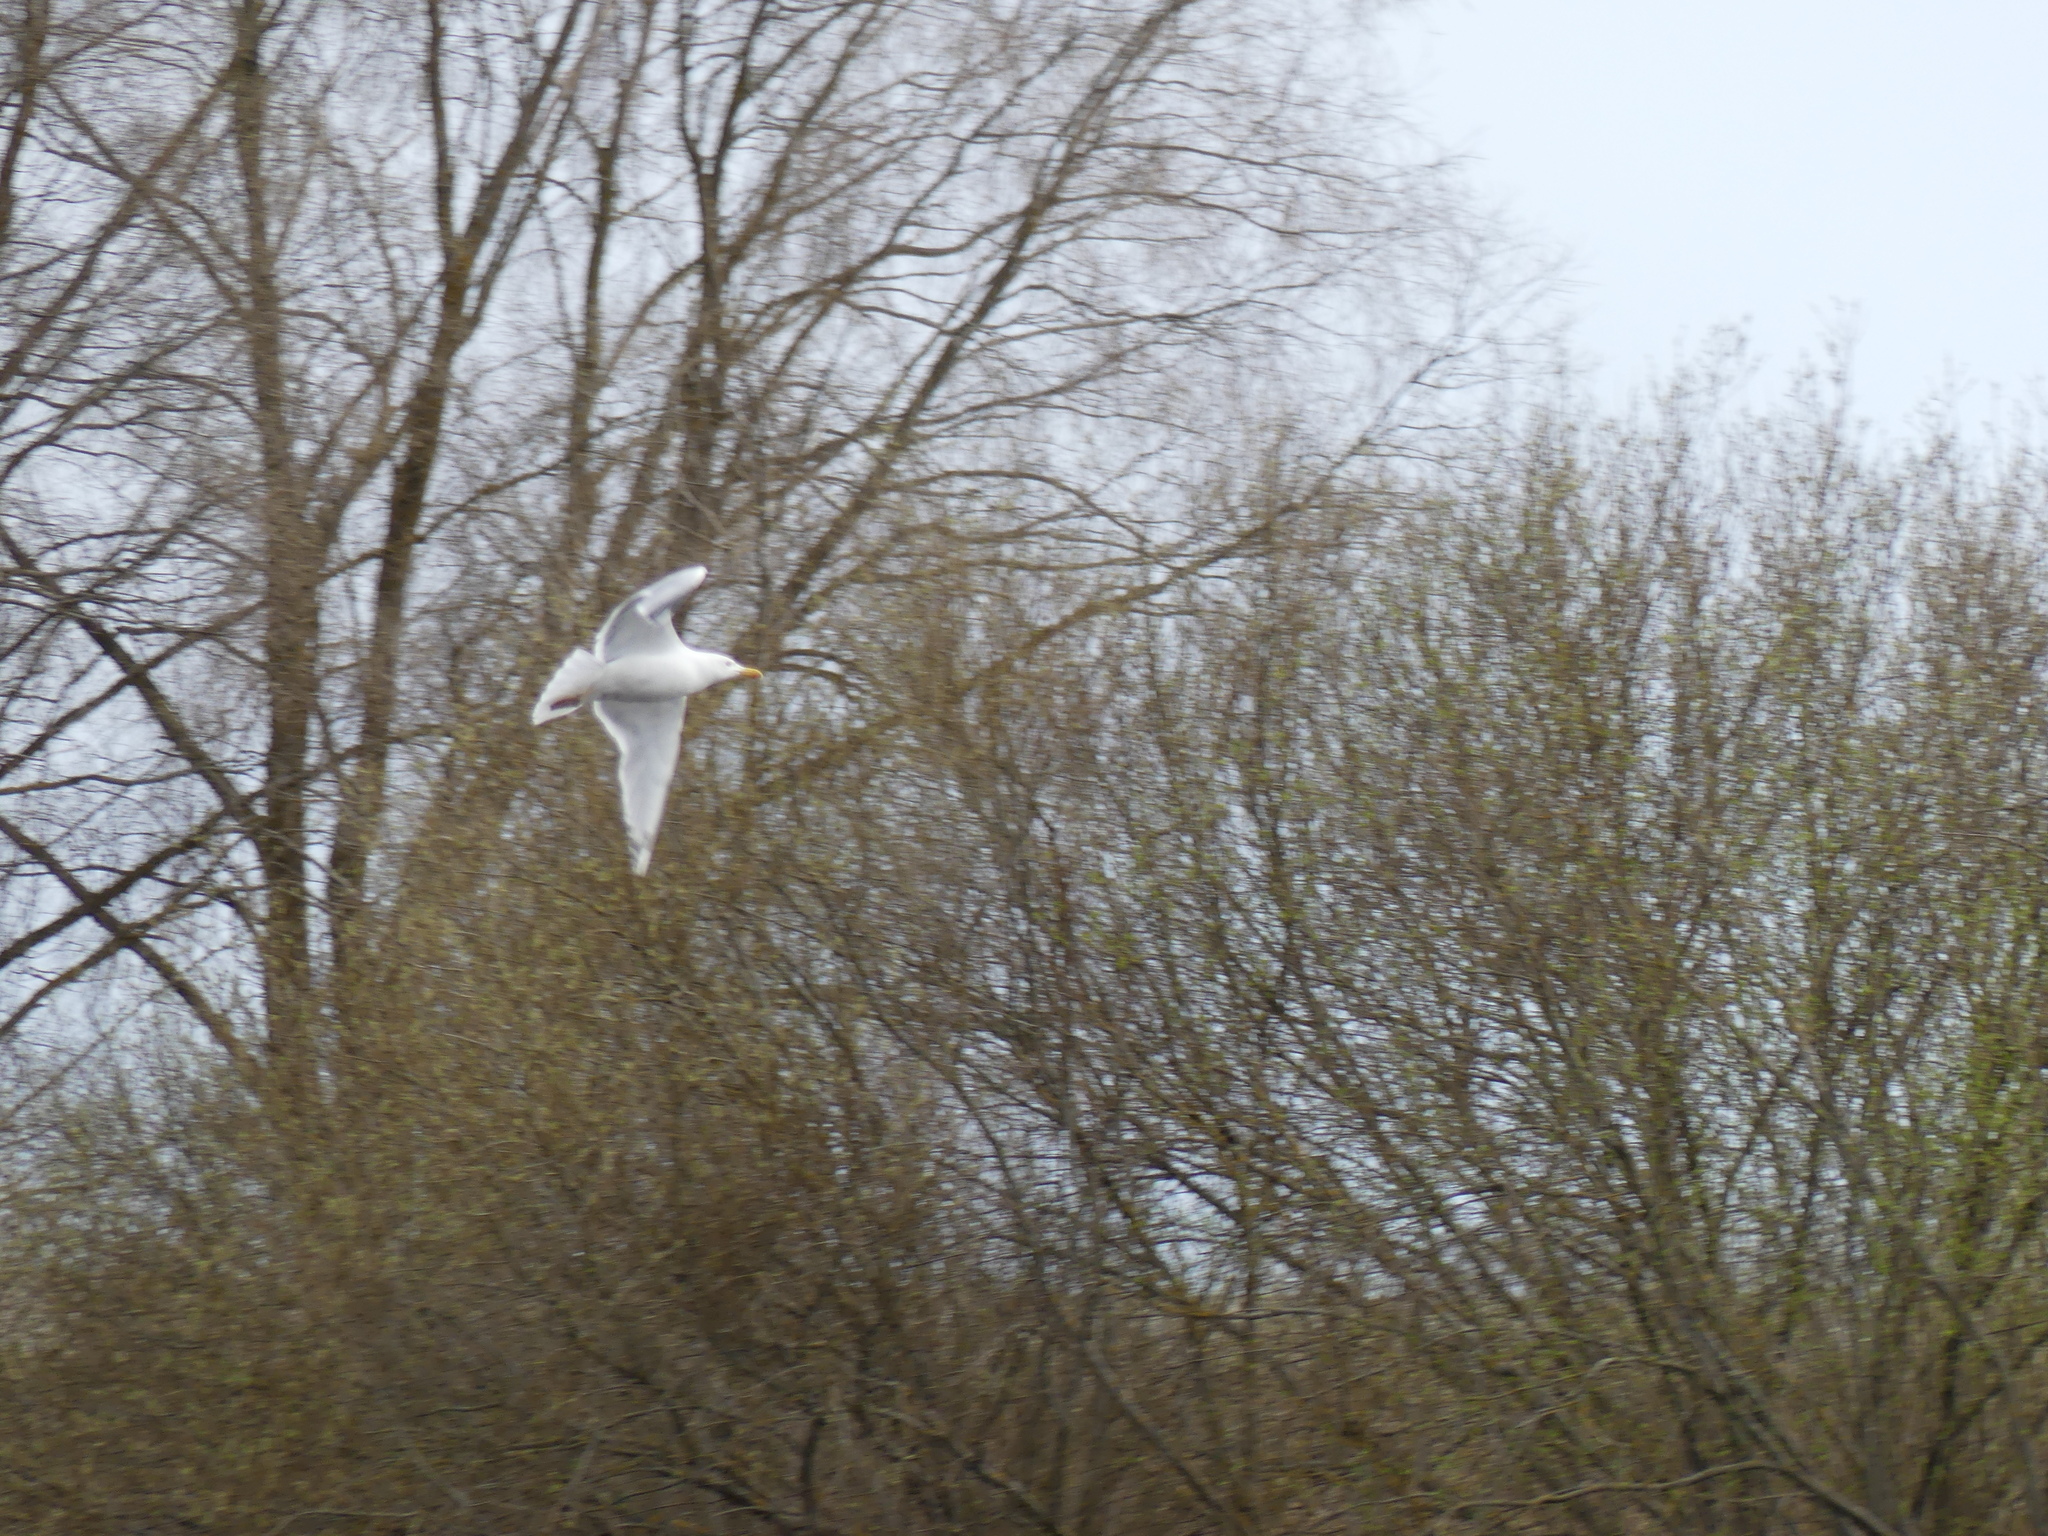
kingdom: Animalia
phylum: Chordata
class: Aves
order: Charadriiformes
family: Laridae
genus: Larus
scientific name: Larus argentatus
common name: Herring gull
